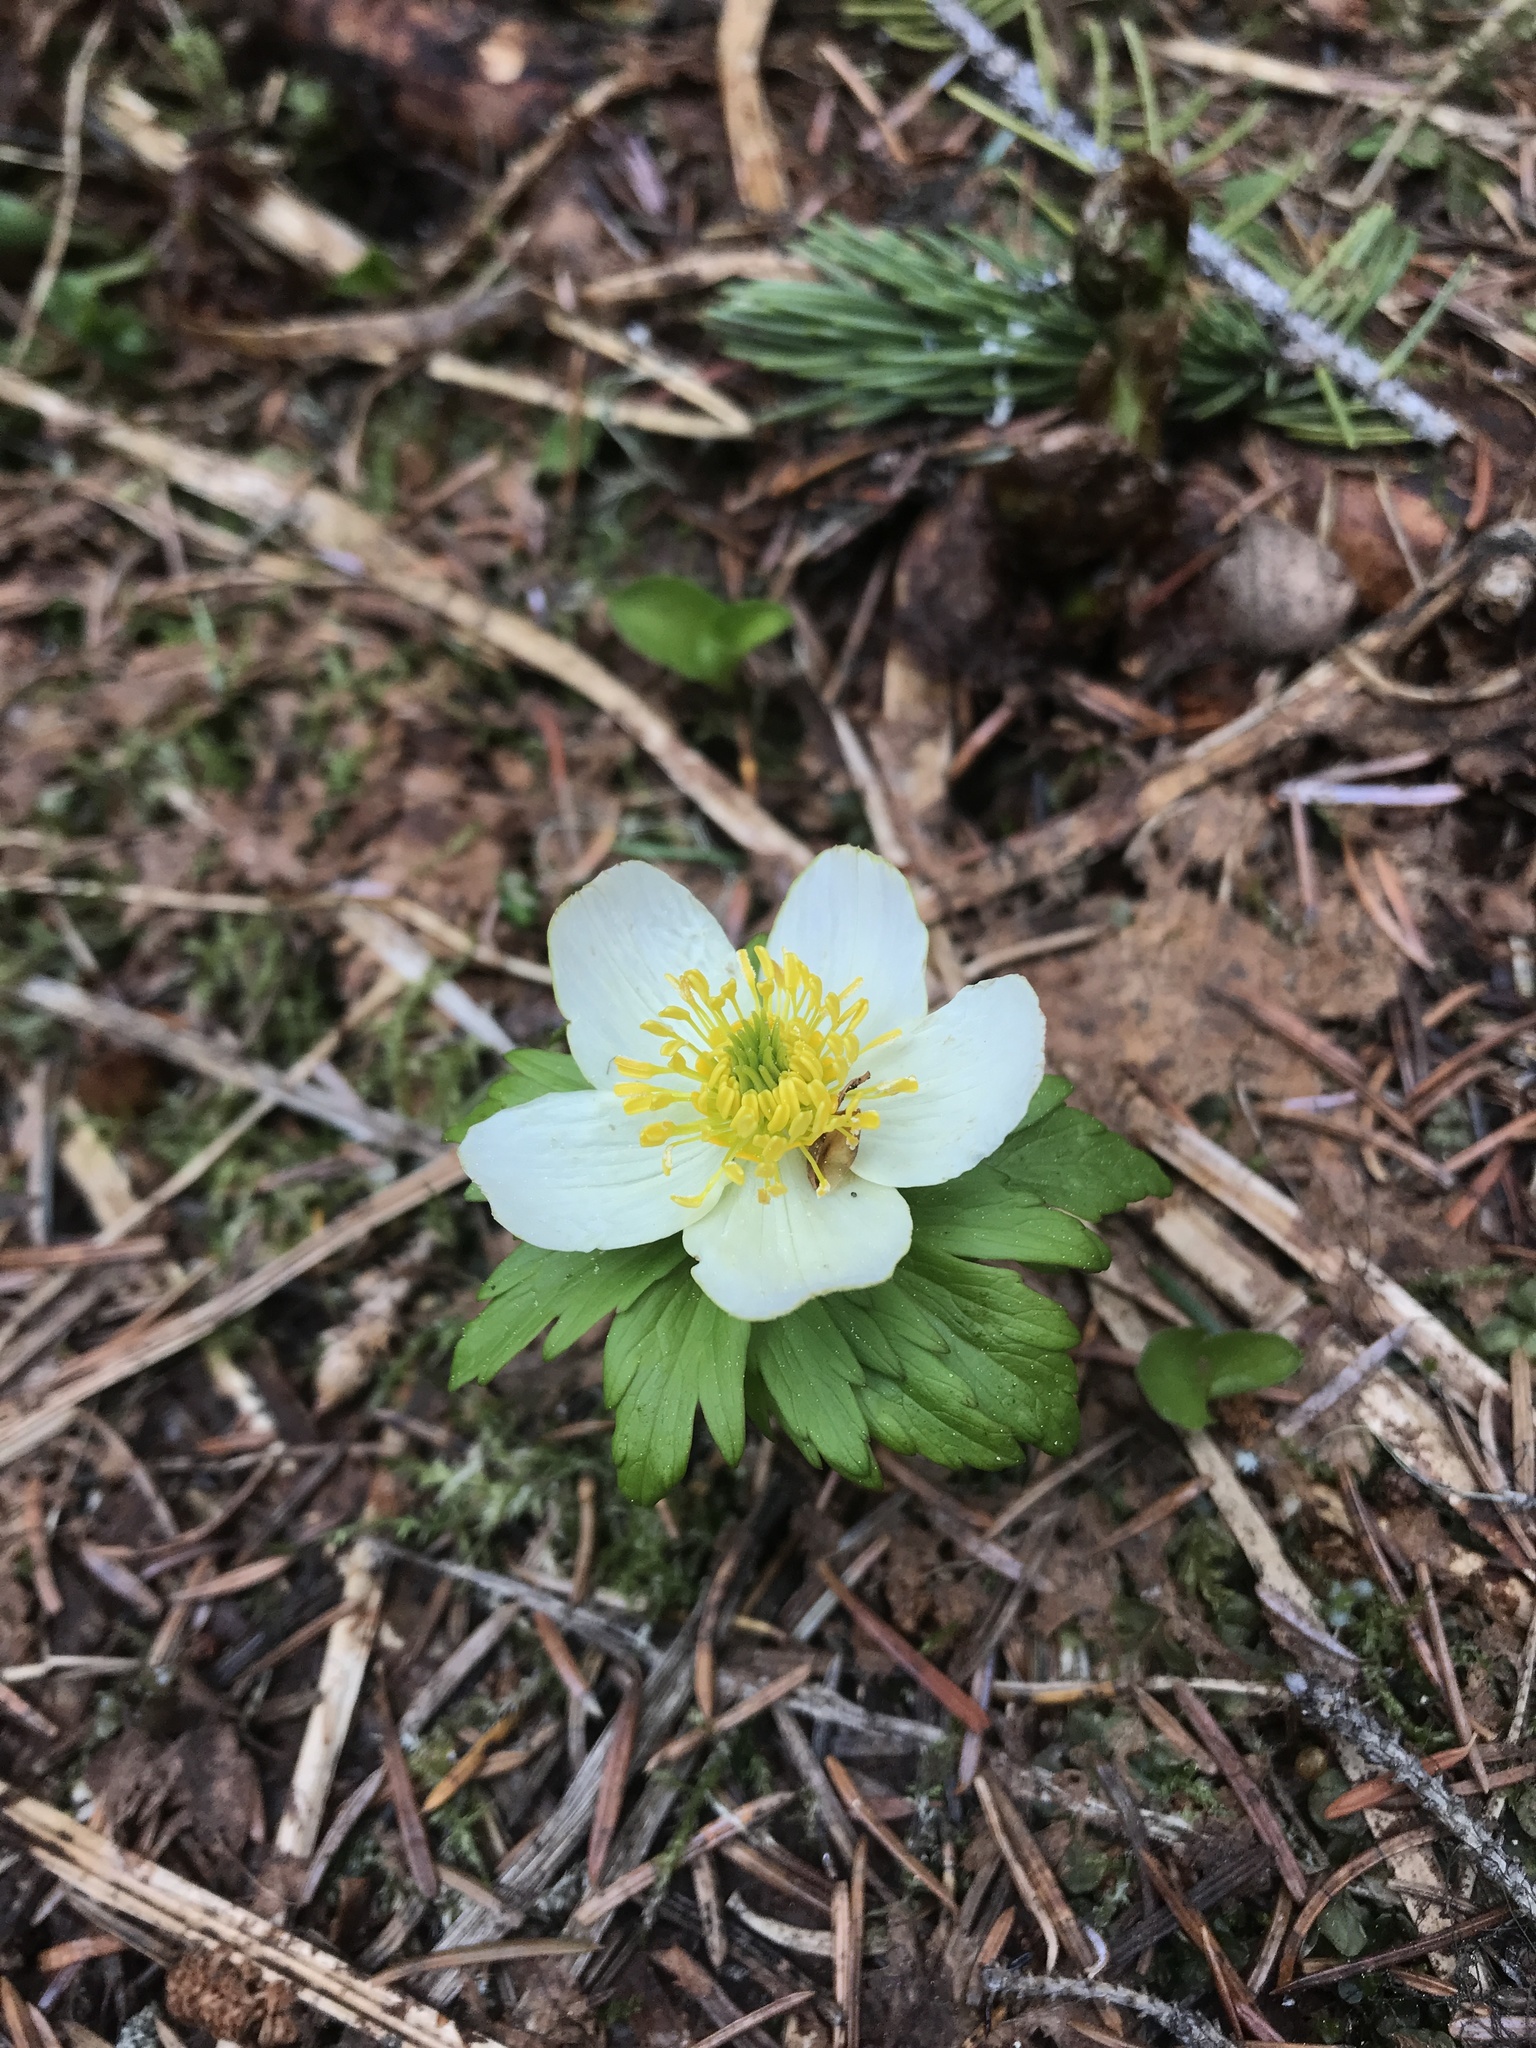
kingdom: Plantae
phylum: Tracheophyta
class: Magnoliopsida
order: Ranunculales
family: Ranunculaceae
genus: Trollius
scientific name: Trollius laxus
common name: American globeflower
